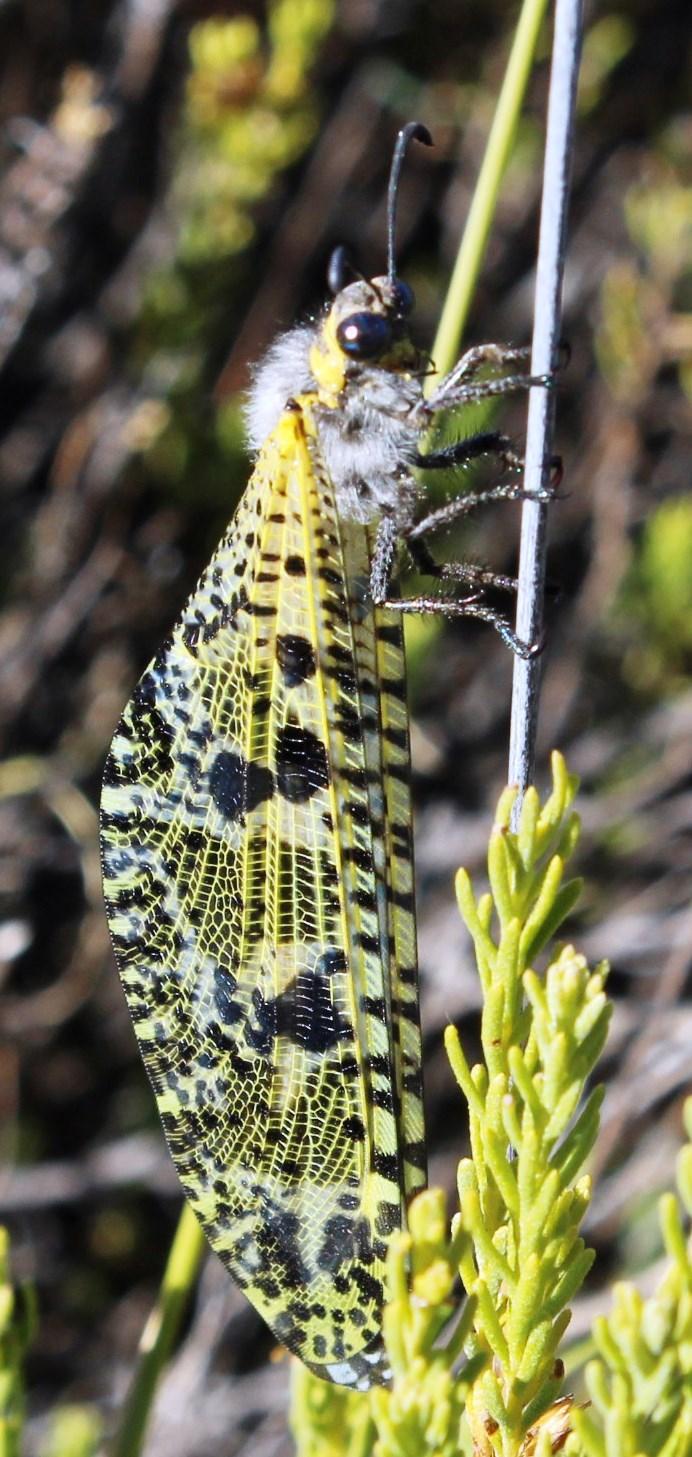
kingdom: Animalia
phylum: Arthropoda
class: Insecta
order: Neuroptera
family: Myrmeleontidae
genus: Palpares
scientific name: Palpares speciosus
